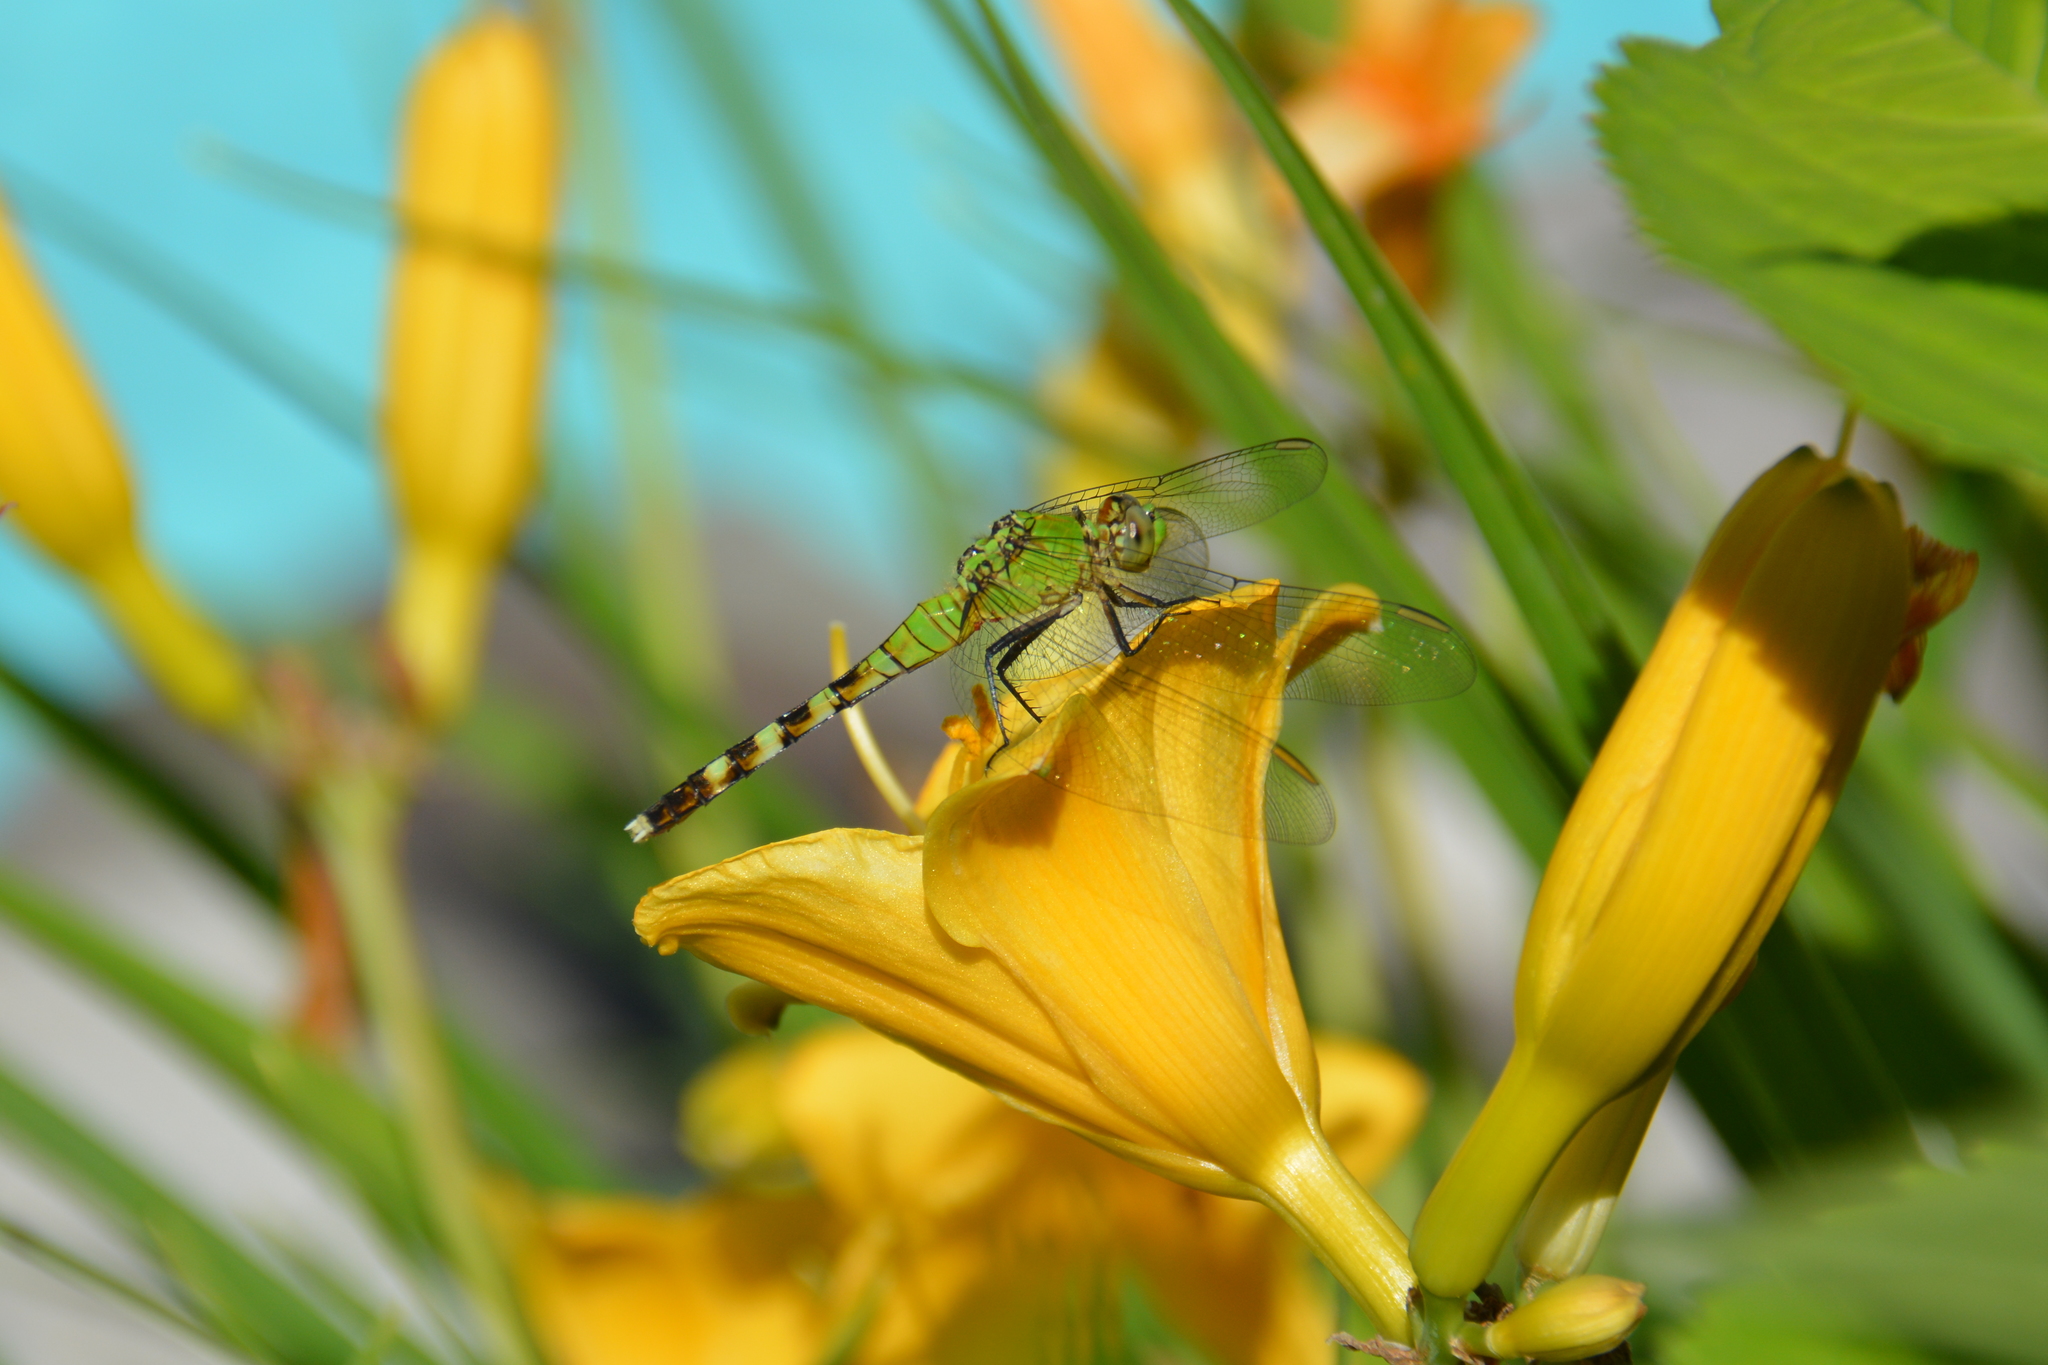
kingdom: Animalia
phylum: Arthropoda
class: Insecta
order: Odonata
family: Libellulidae
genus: Erythemis
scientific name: Erythemis simplicicollis
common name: Eastern pondhawk
